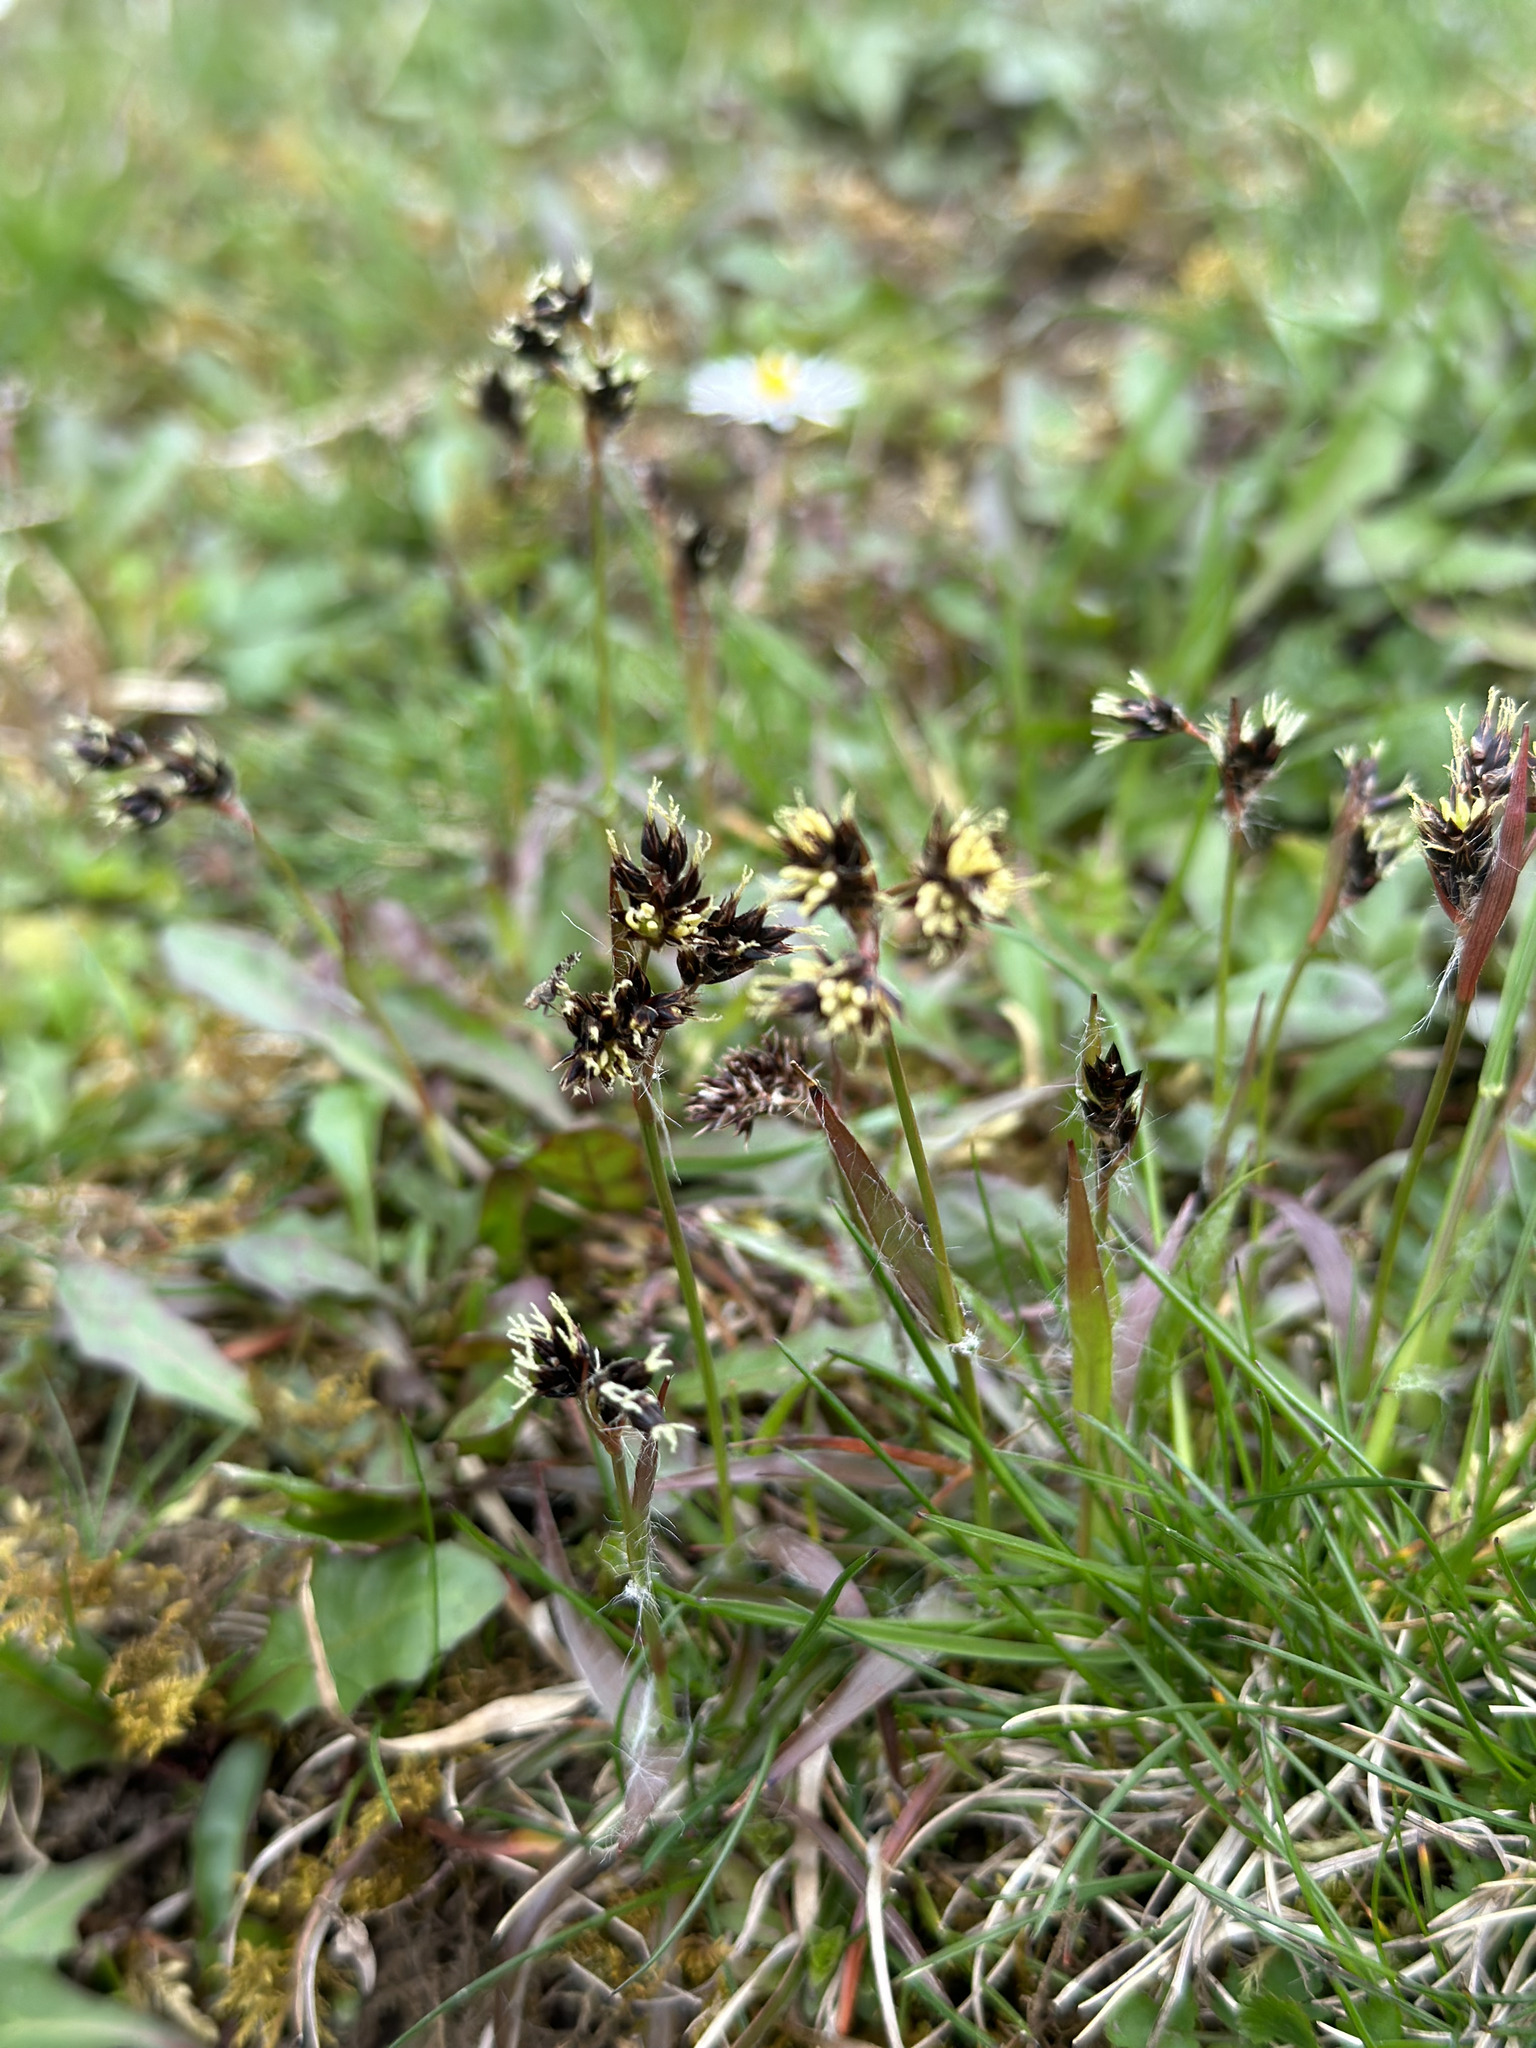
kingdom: Plantae
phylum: Tracheophyta
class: Liliopsida
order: Poales
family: Juncaceae
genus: Luzula
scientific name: Luzula campestris
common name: Field wood-rush
